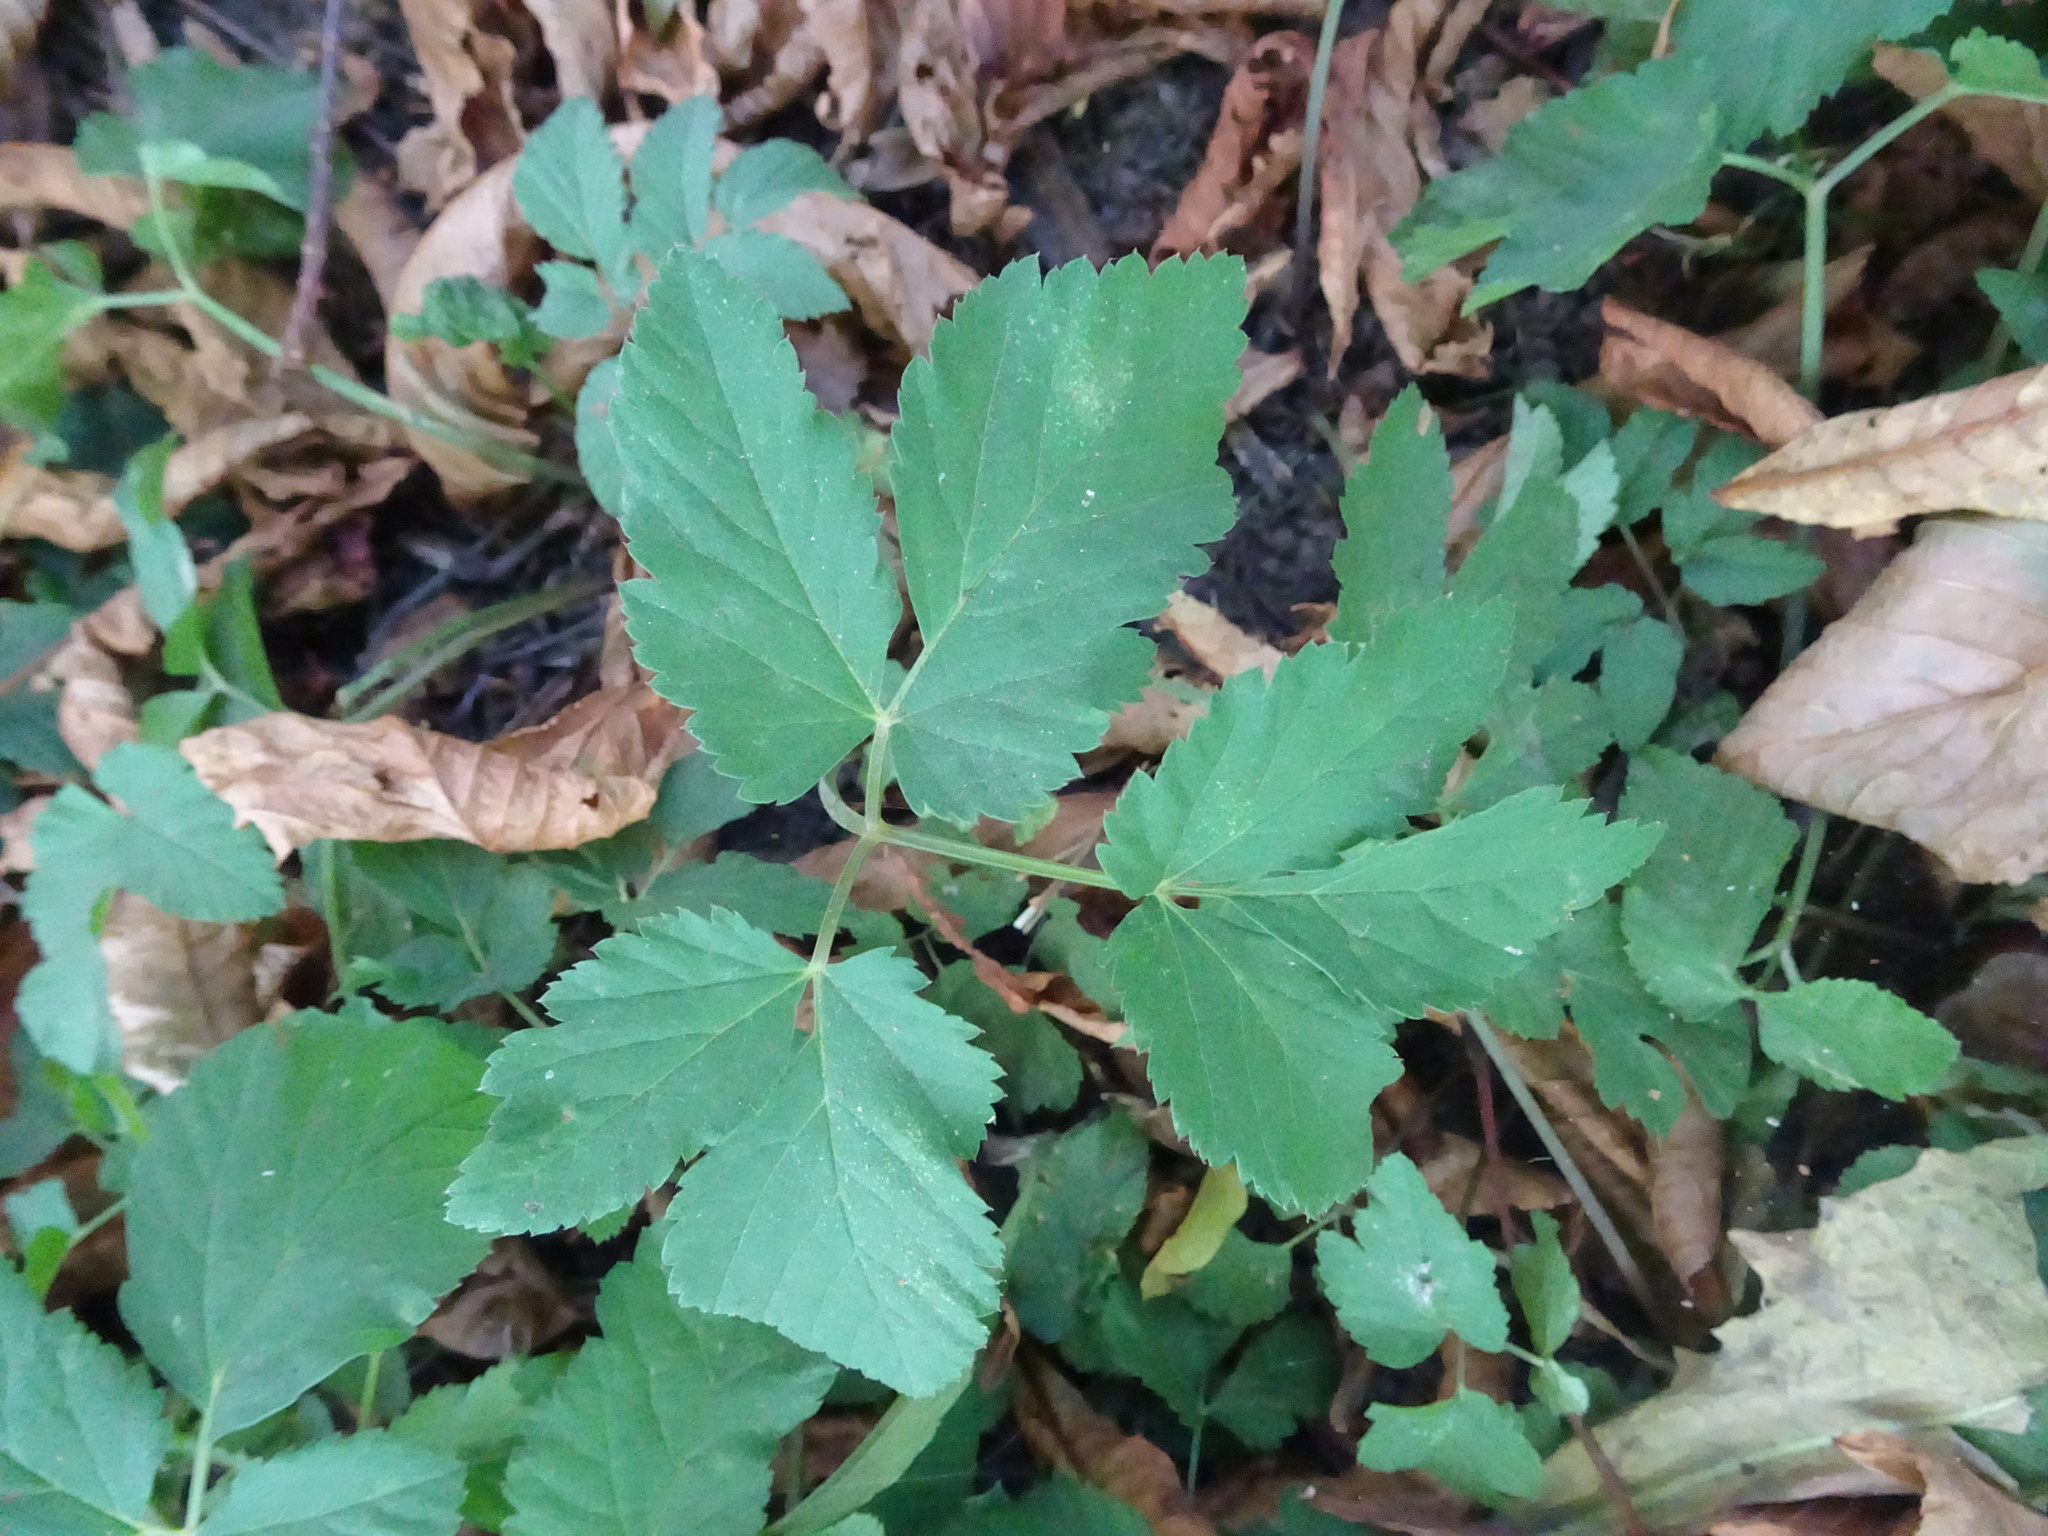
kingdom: Plantae
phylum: Tracheophyta
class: Magnoliopsida
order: Apiales
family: Apiaceae
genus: Aegopodium
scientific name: Aegopodium podagraria
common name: Ground-elder
